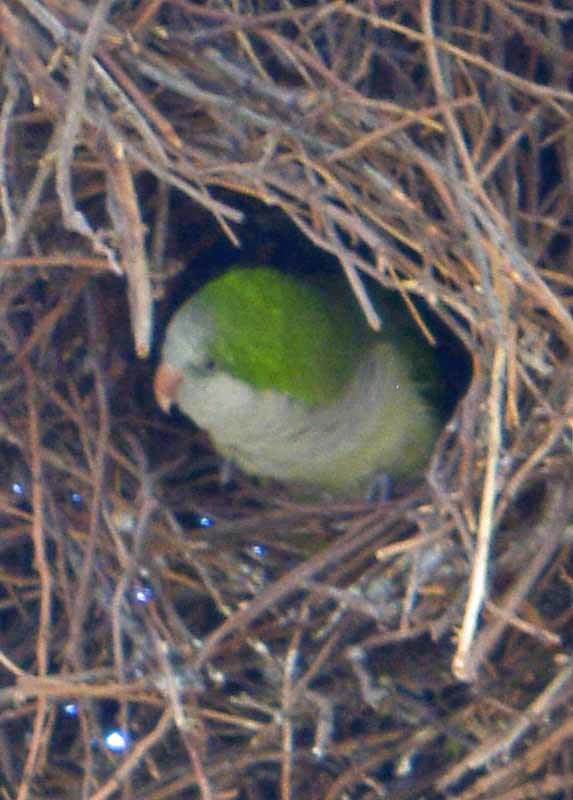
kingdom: Animalia
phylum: Chordata
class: Aves
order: Psittaciformes
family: Psittacidae
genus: Myiopsitta
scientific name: Myiopsitta monachus
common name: Monk parakeet
